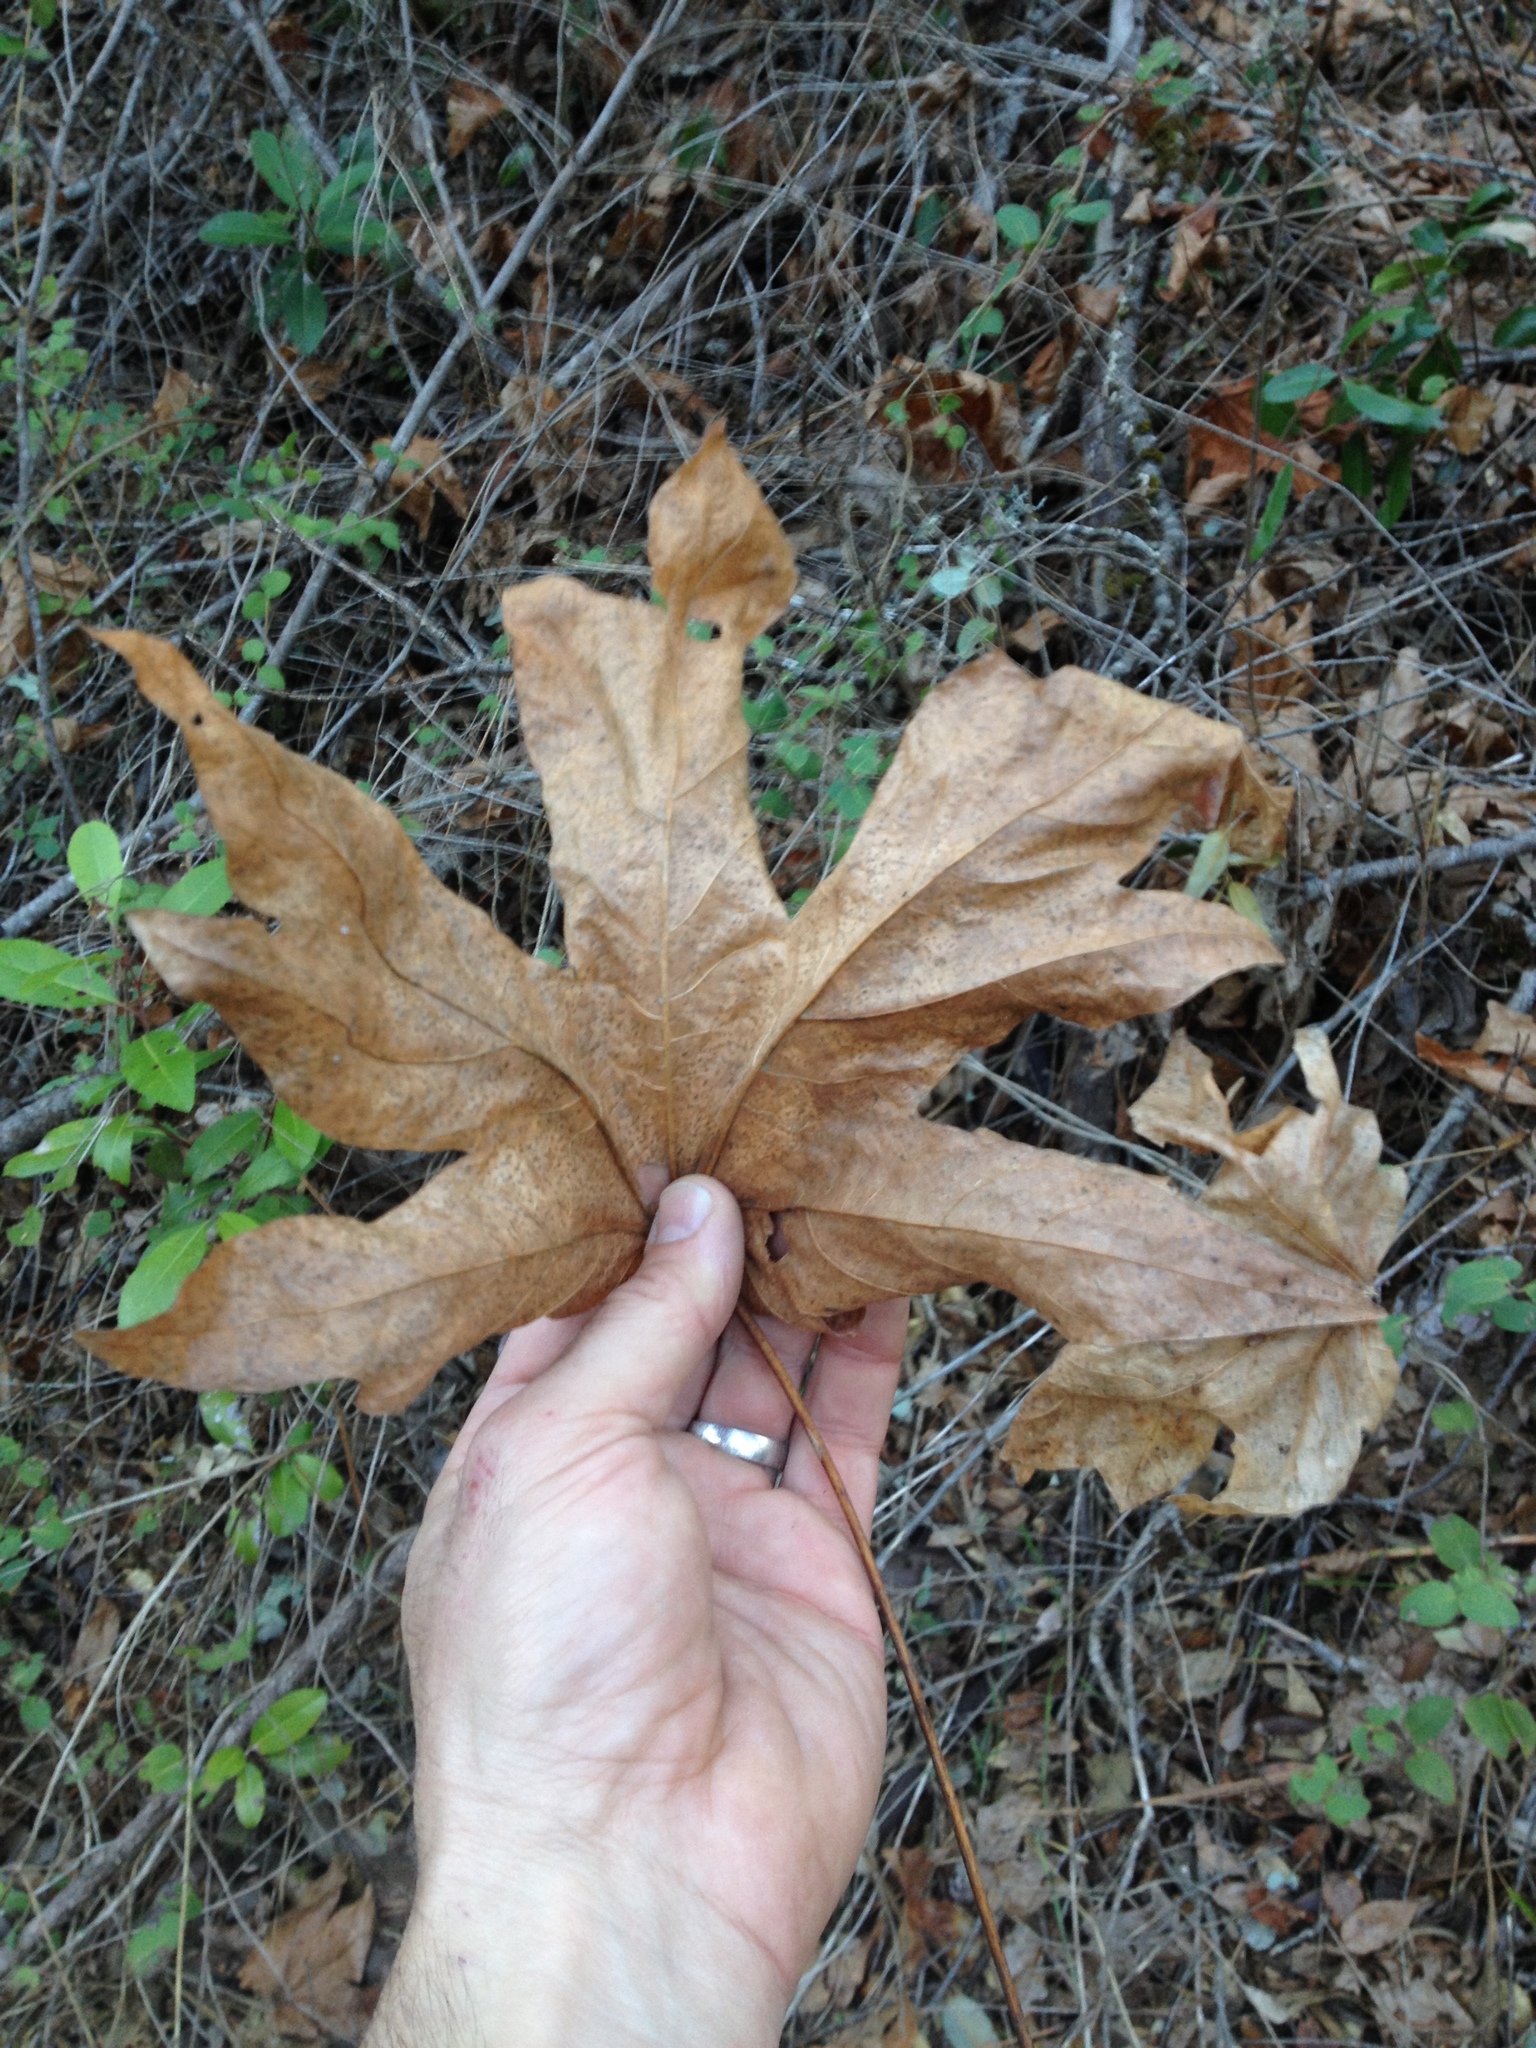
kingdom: Plantae
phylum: Tracheophyta
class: Magnoliopsida
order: Sapindales
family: Sapindaceae
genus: Acer
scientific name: Acer macrophyllum
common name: Oregon maple
